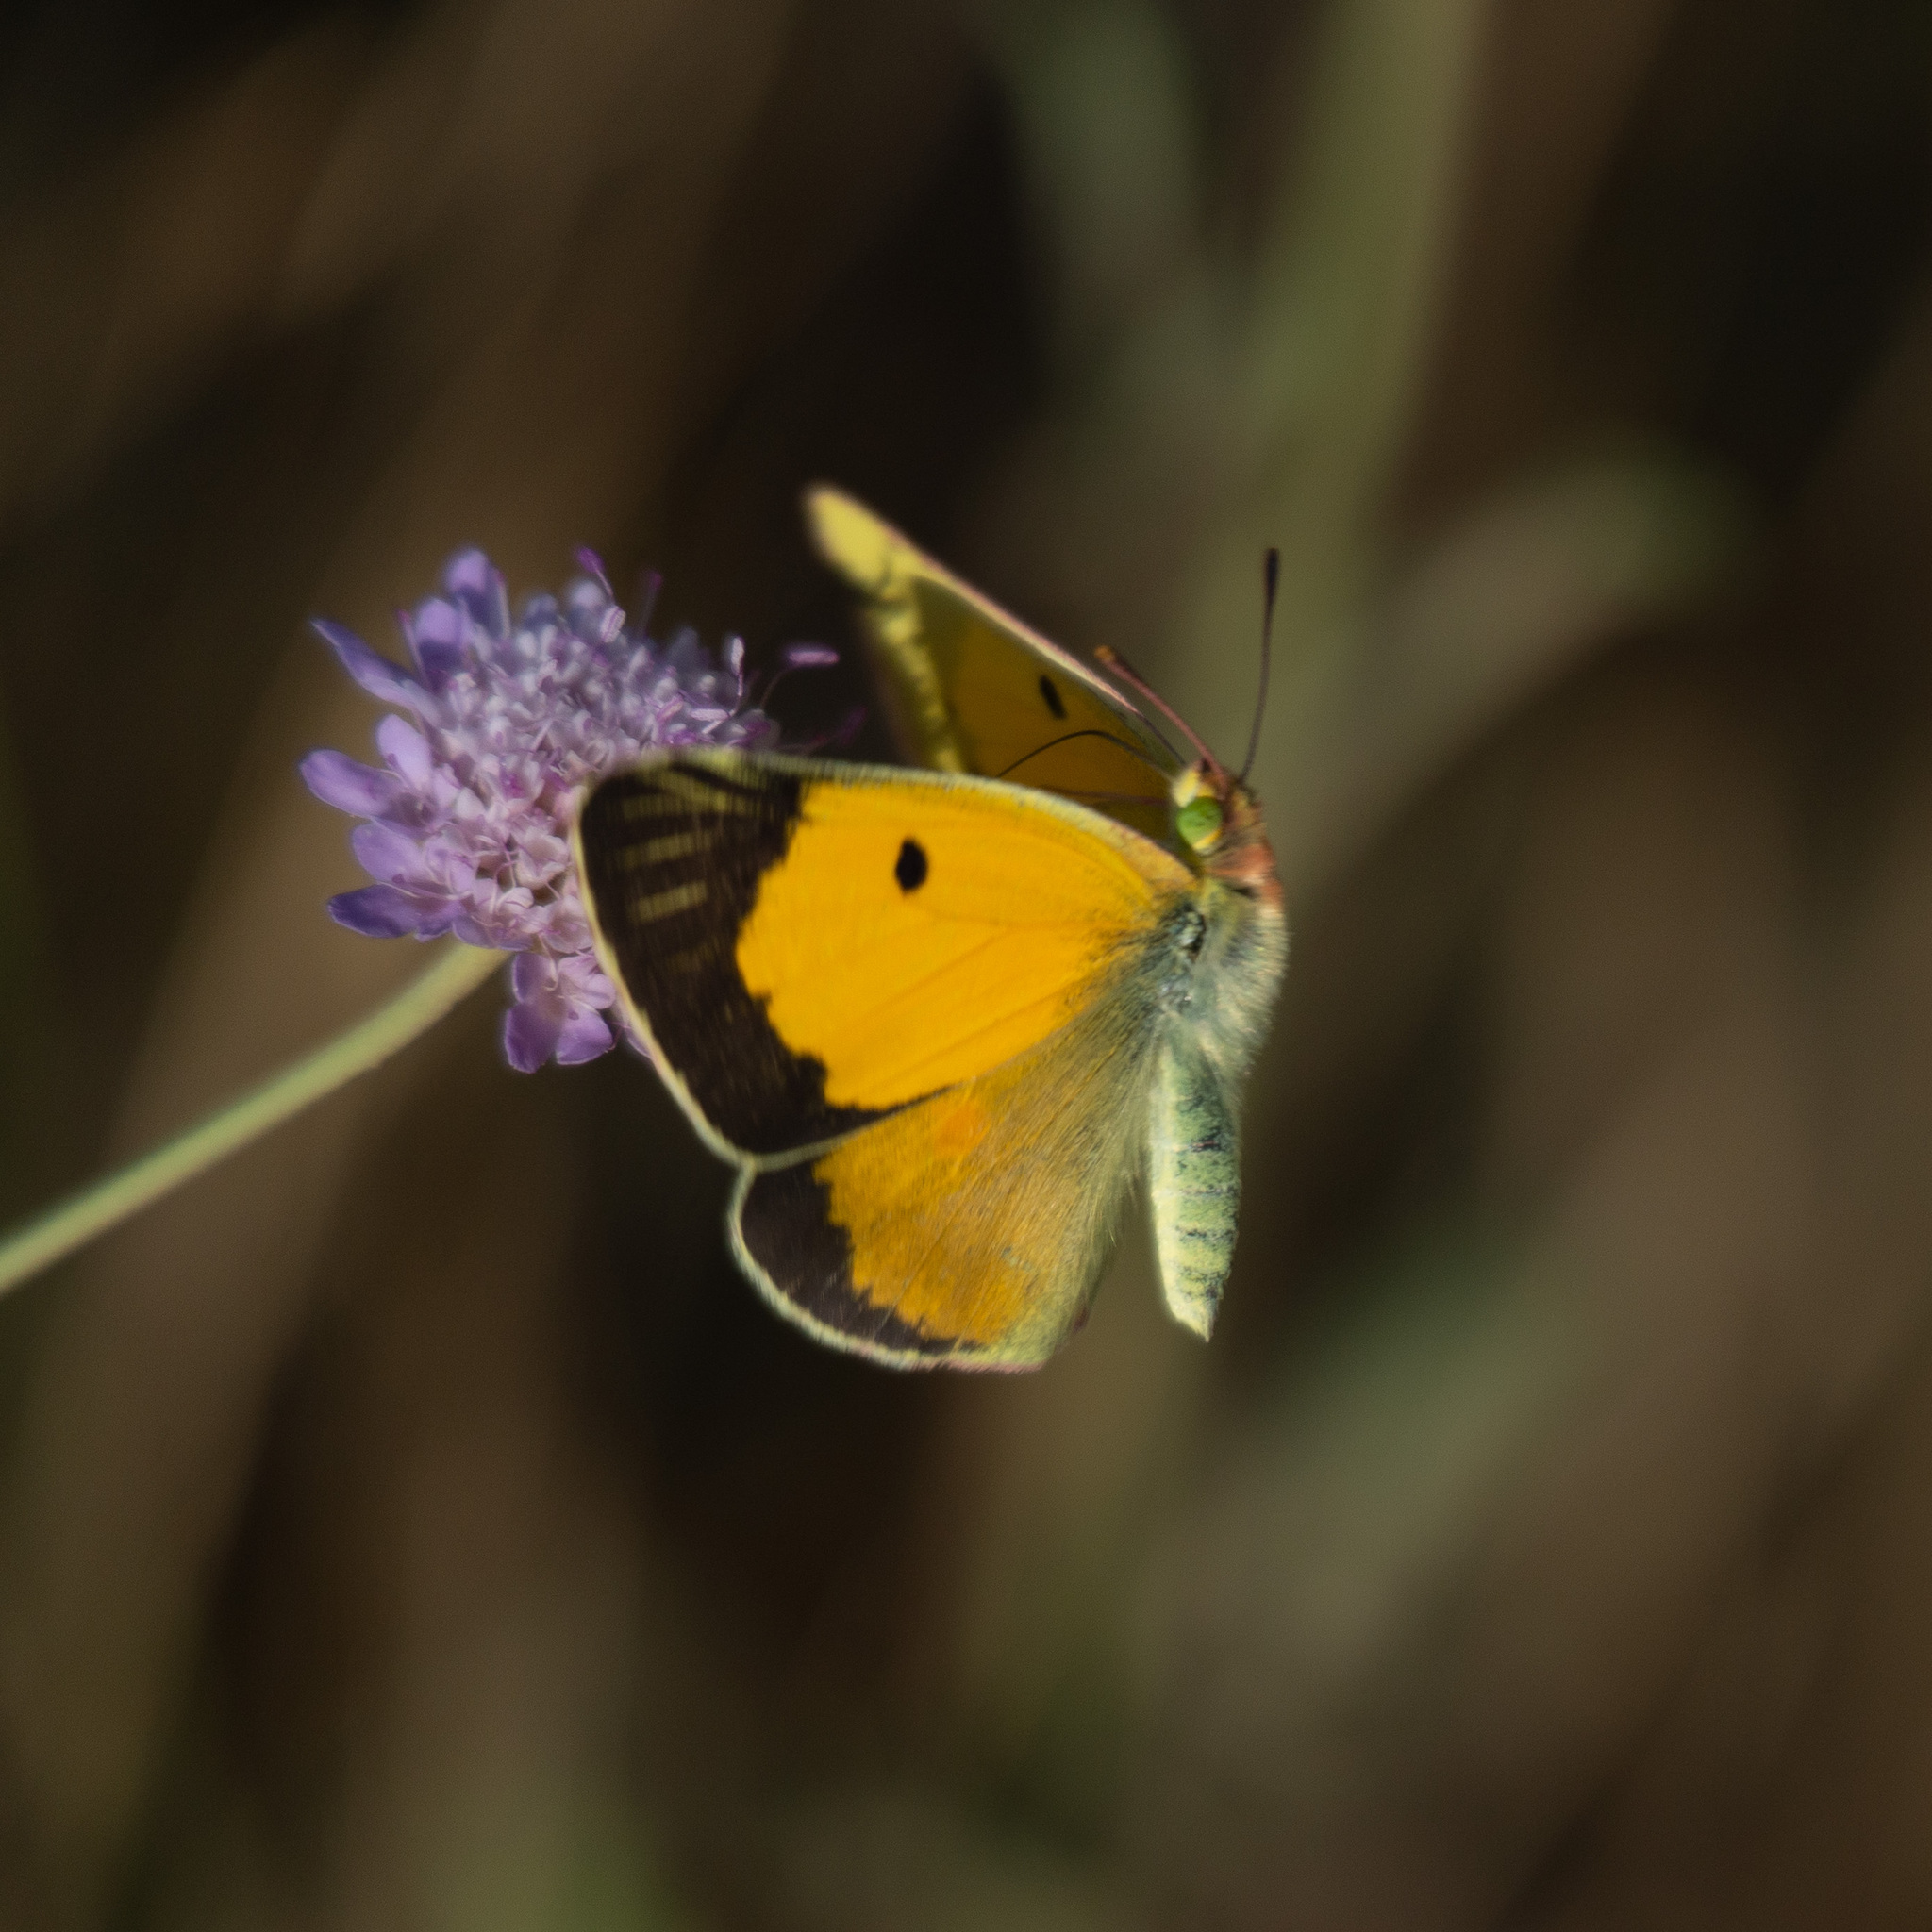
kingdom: Animalia
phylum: Arthropoda
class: Insecta
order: Lepidoptera
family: Pieridae
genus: Colias
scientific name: Colias croceus
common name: Clouded yellow
